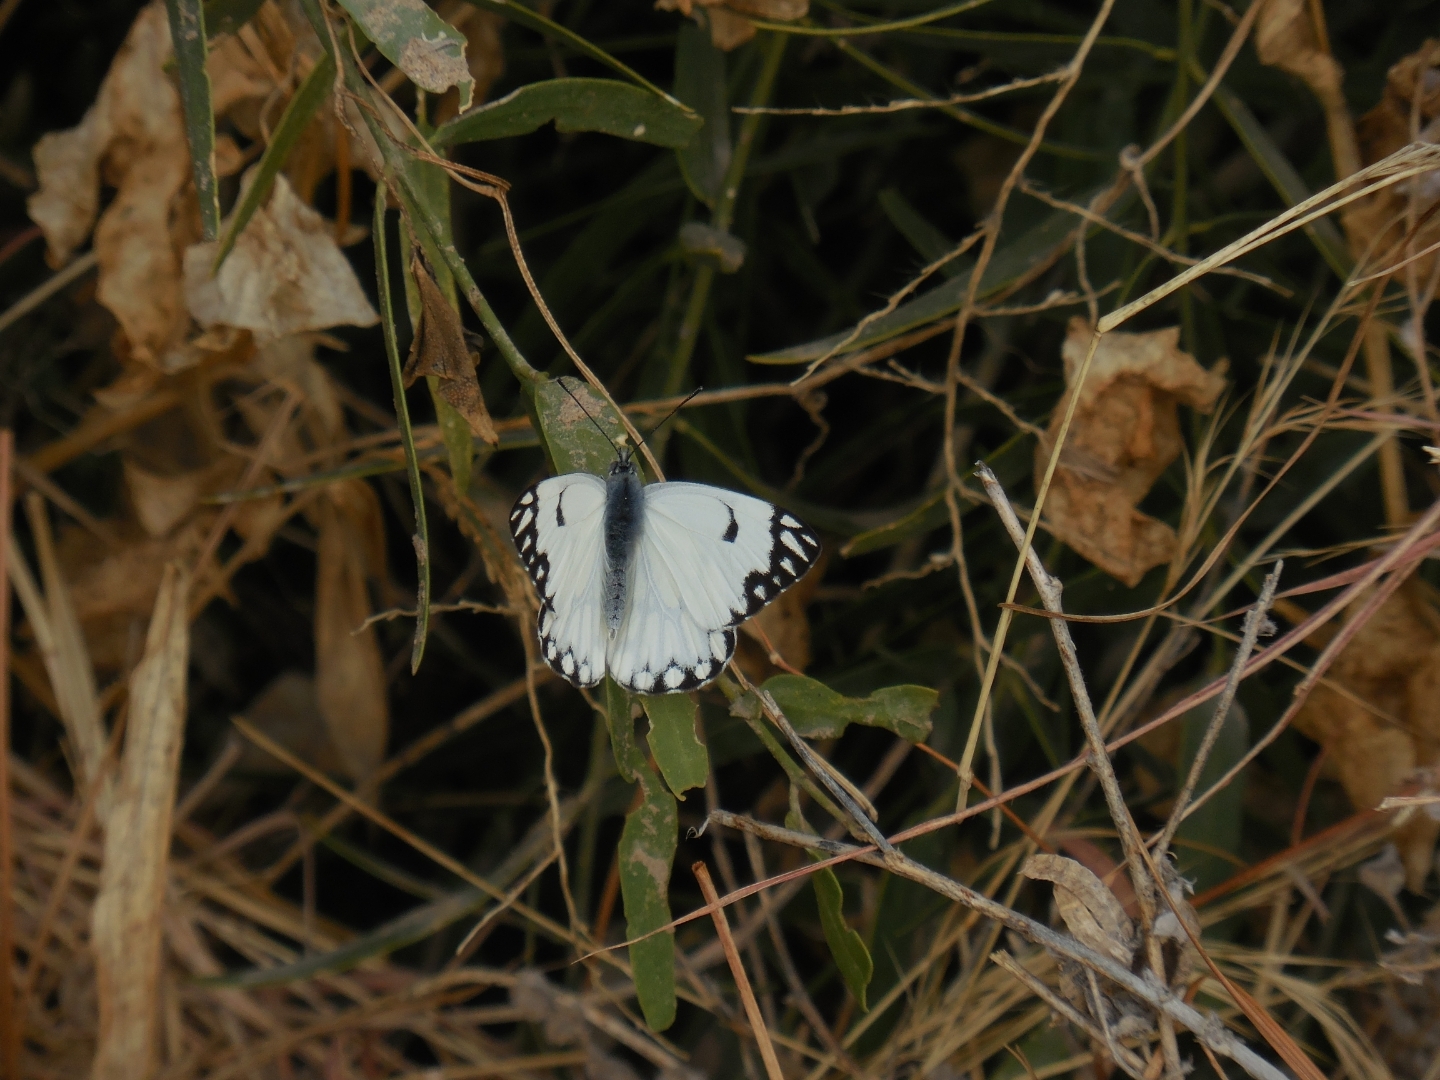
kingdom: Animalia
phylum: Arthropoda
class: Insecta
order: Lepidoptera
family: Pieridae
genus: Belenois
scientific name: Belenois aurota
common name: Brown-veined white
